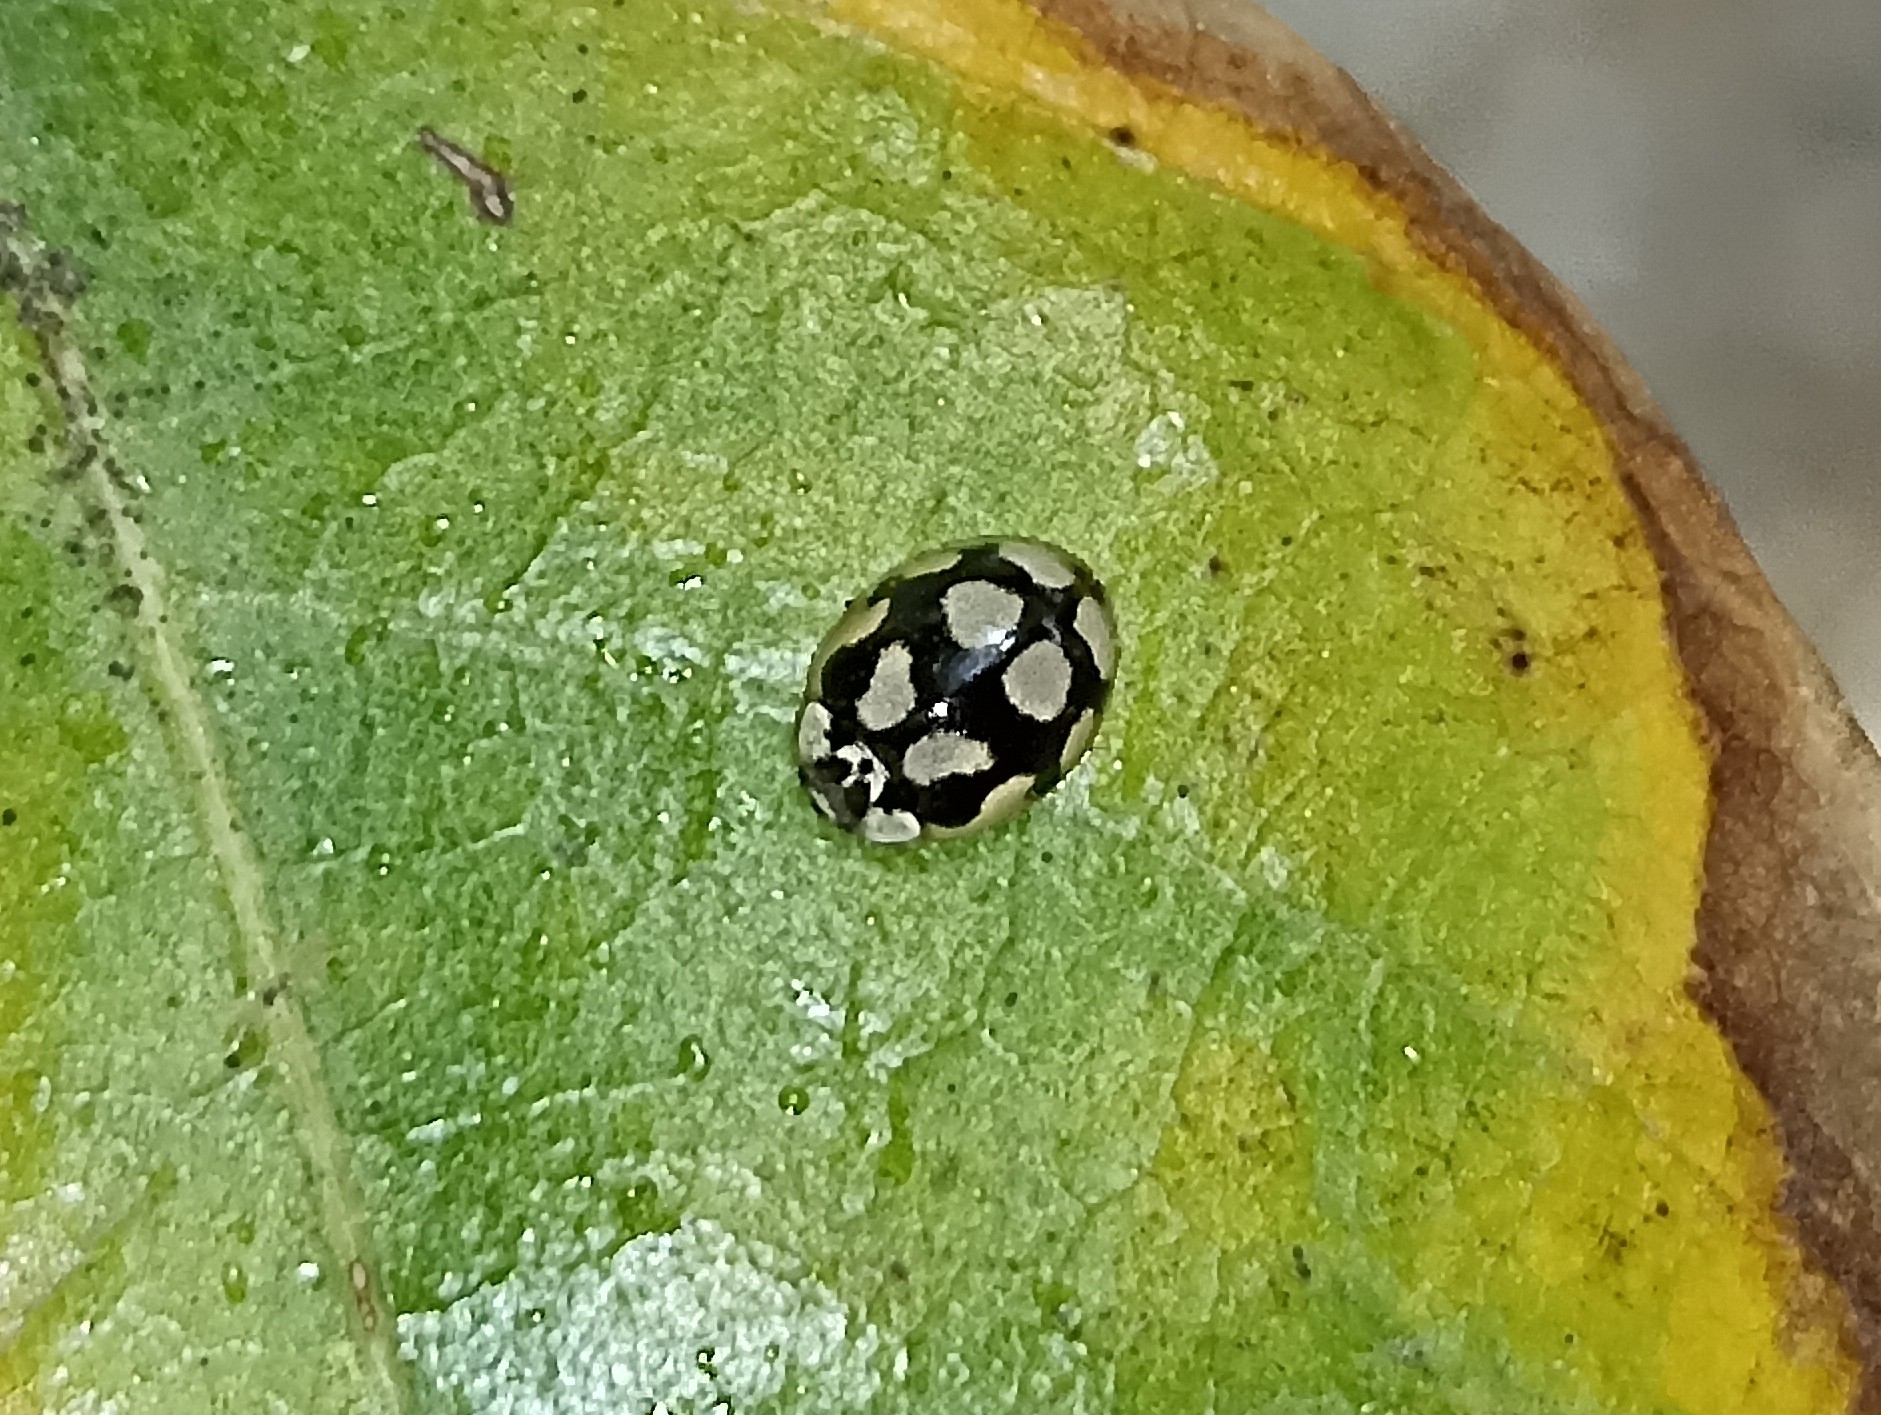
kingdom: Animalia
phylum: Arthropoda
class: Insecta
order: Coleoptera
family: Coccinellidae
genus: Adalia
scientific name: Adalia decempunctata
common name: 10-spot ladybird
